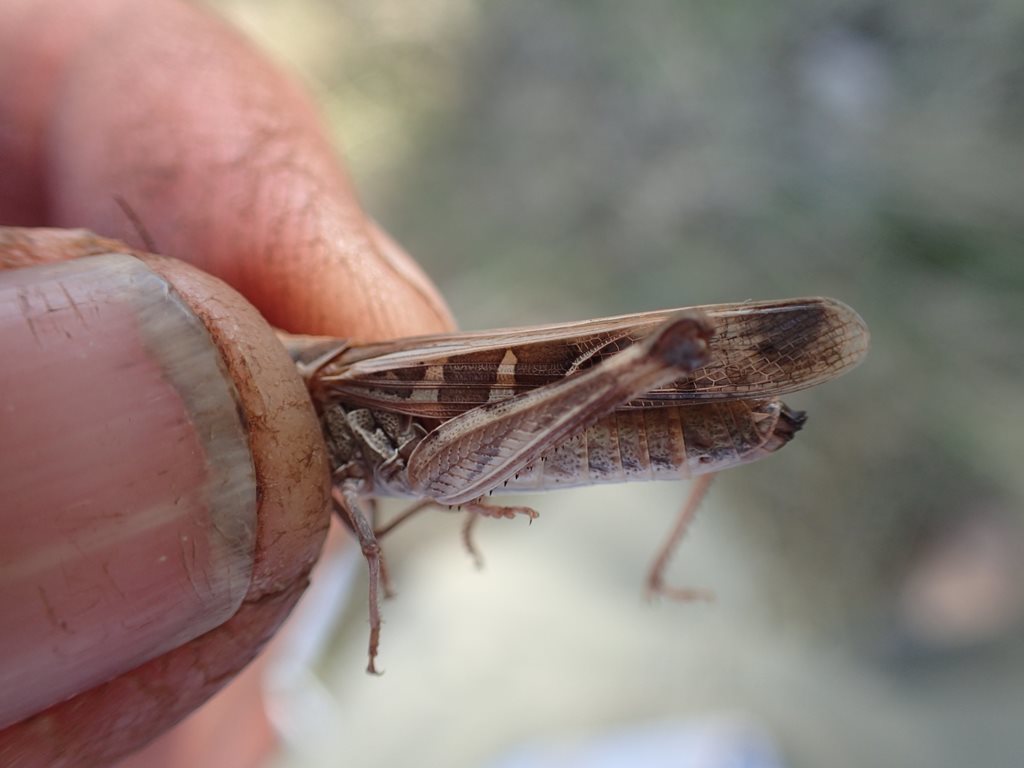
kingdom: Animalia
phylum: Arthropoda
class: Insecta
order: Orthoptera
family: Acrididae
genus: Oedaleus
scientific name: Oedaleus australis
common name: Eastern oedaleus
